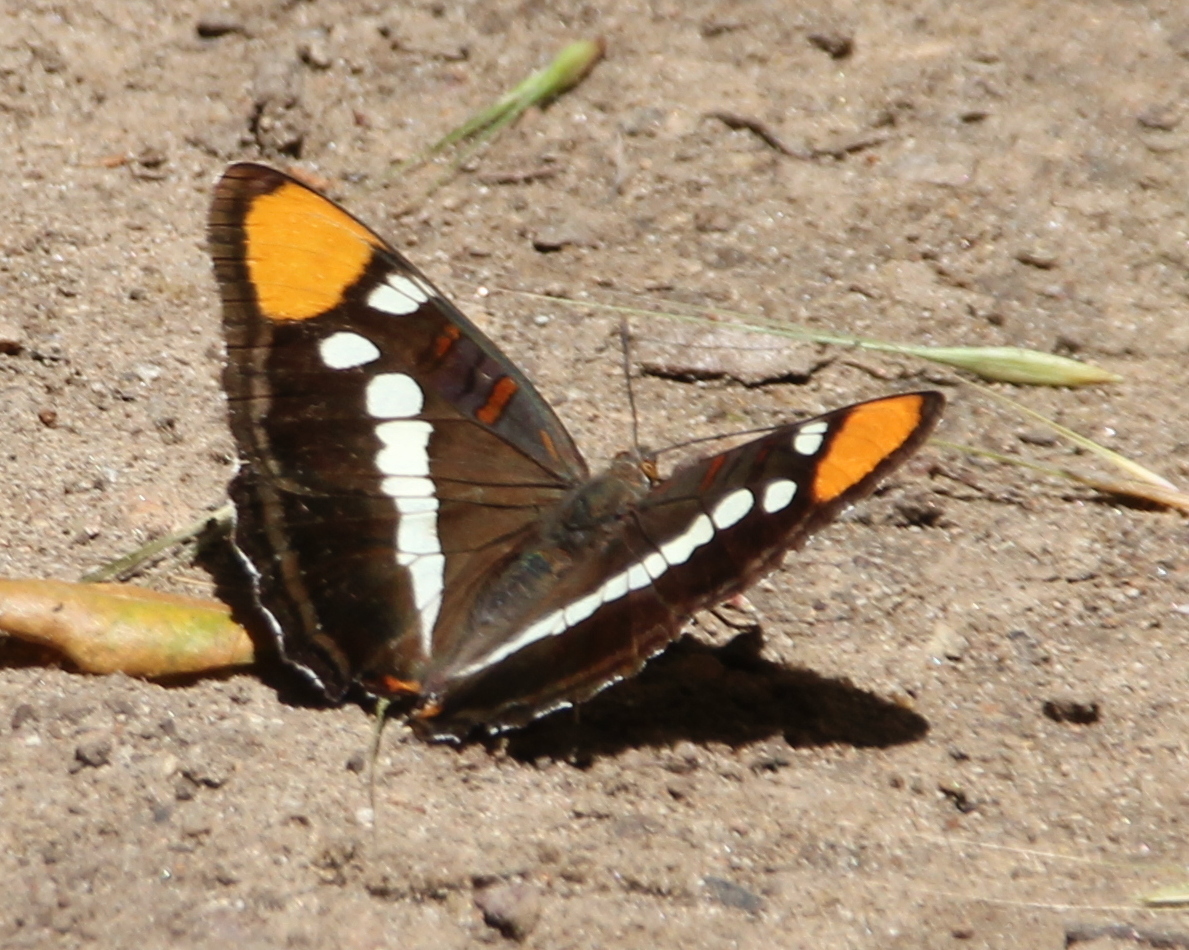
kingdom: Animalia
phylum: Arthropoda
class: Insecta
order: Lepidoptera
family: Nymphalidae
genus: Limenitis
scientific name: Limenitis bredowii
